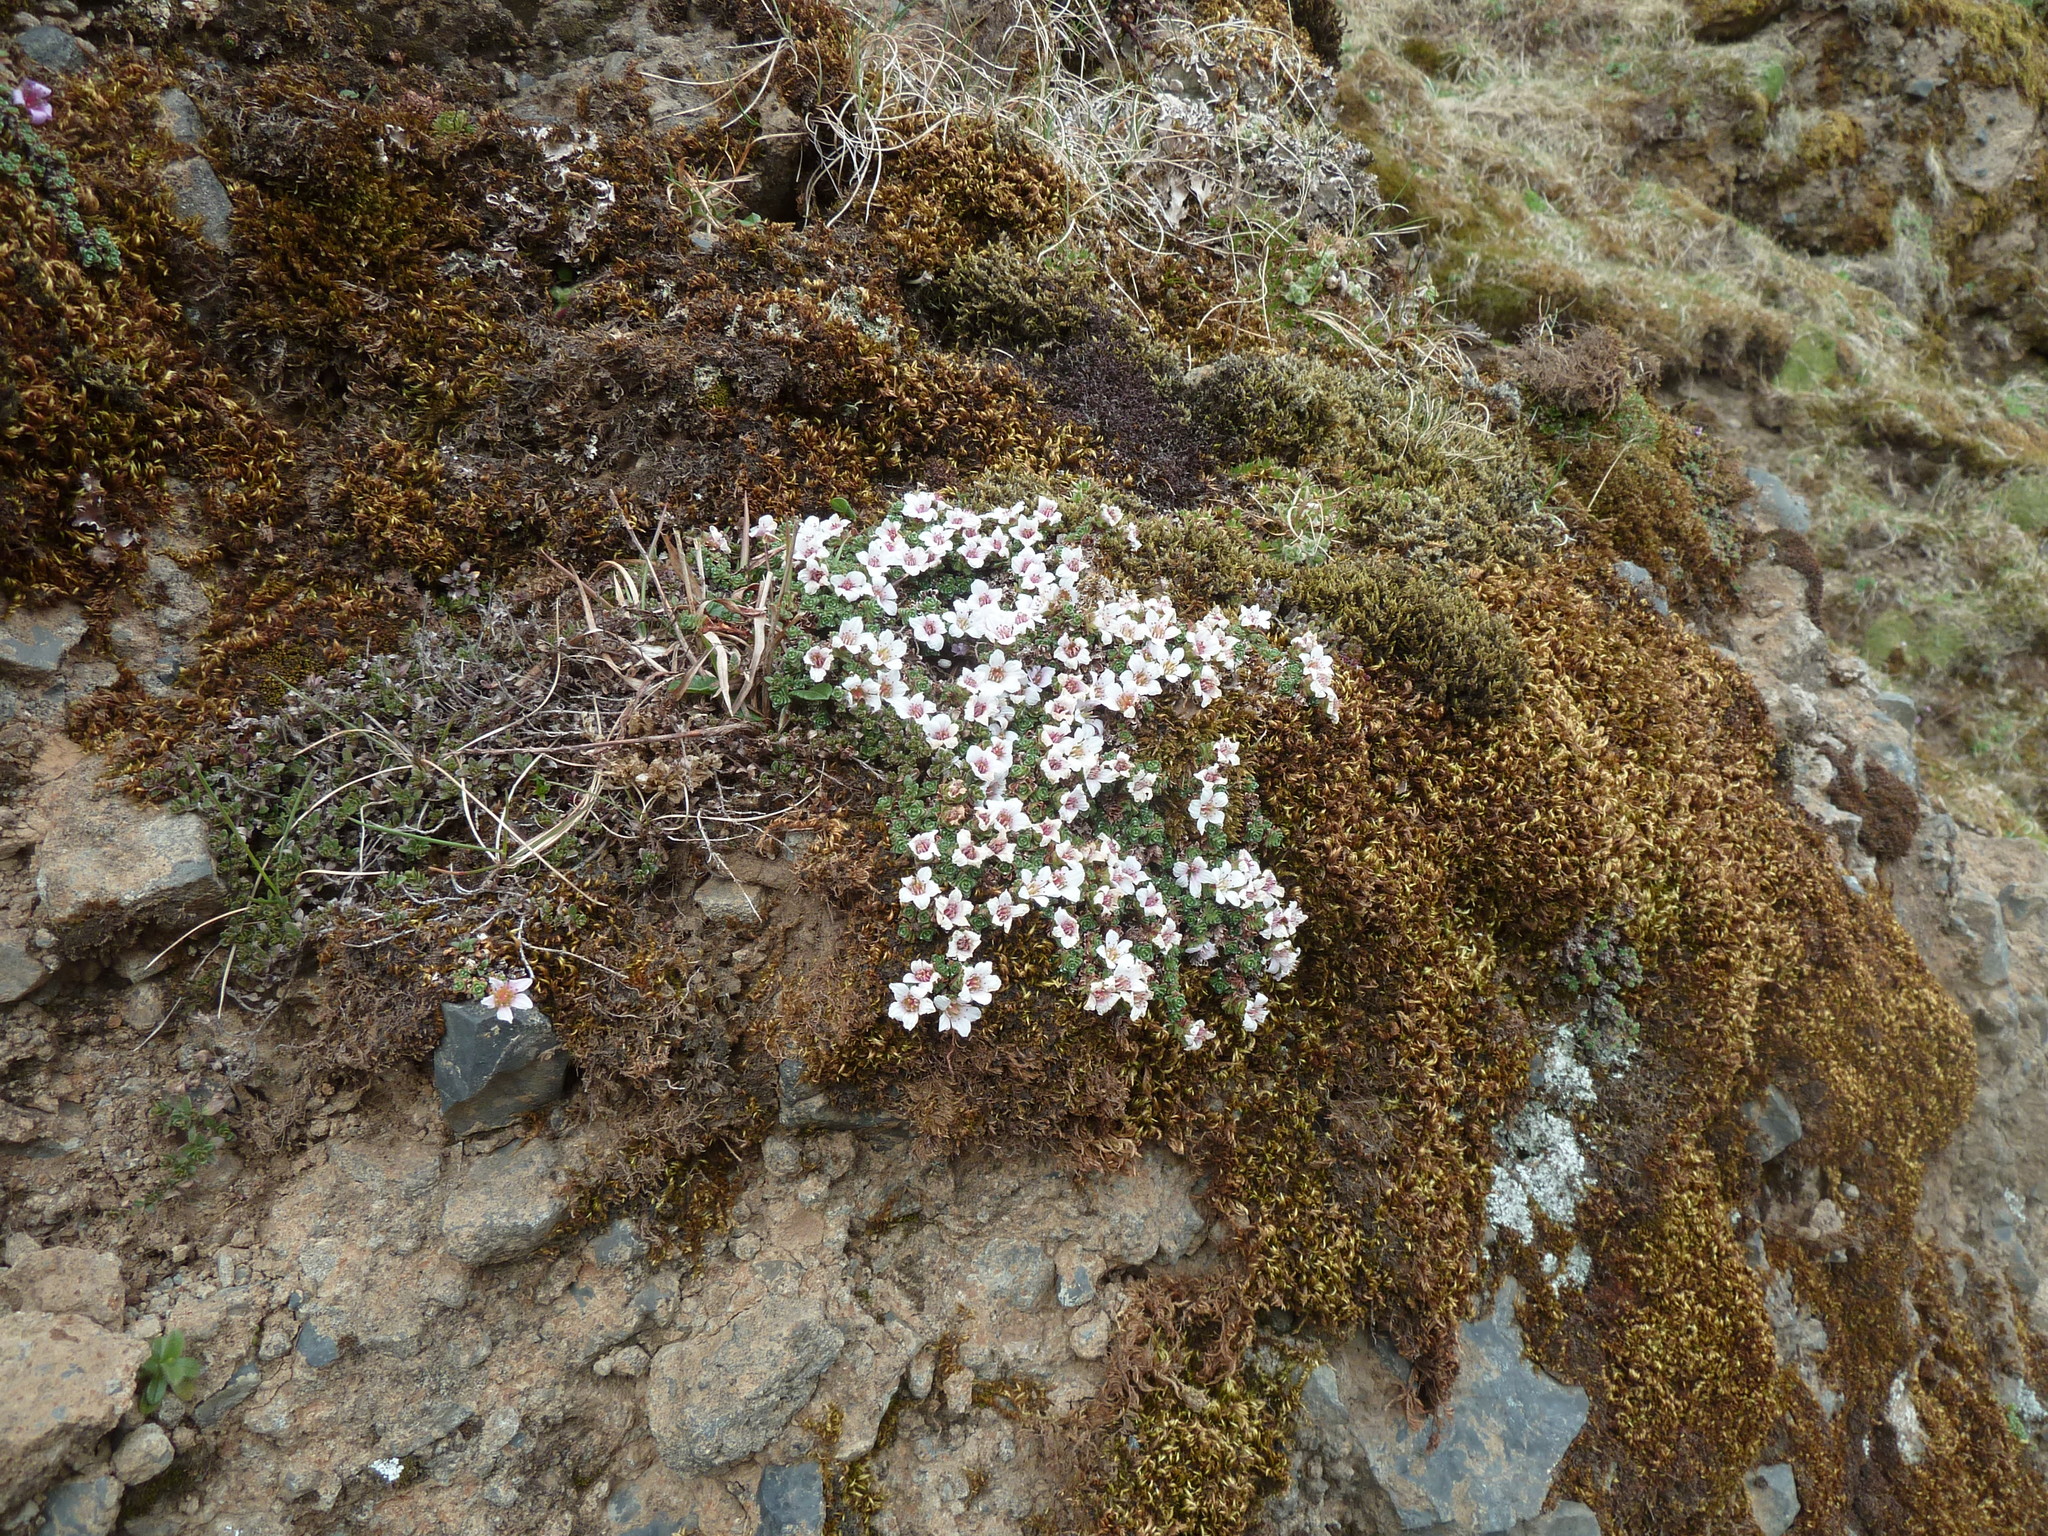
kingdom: Plantae
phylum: Tracheophyta
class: Magnoliopsida
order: Saxifragales
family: Saxifragaceae
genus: Saxifraga
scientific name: Saxifraga oppositifolia
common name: Purple saxifrage
